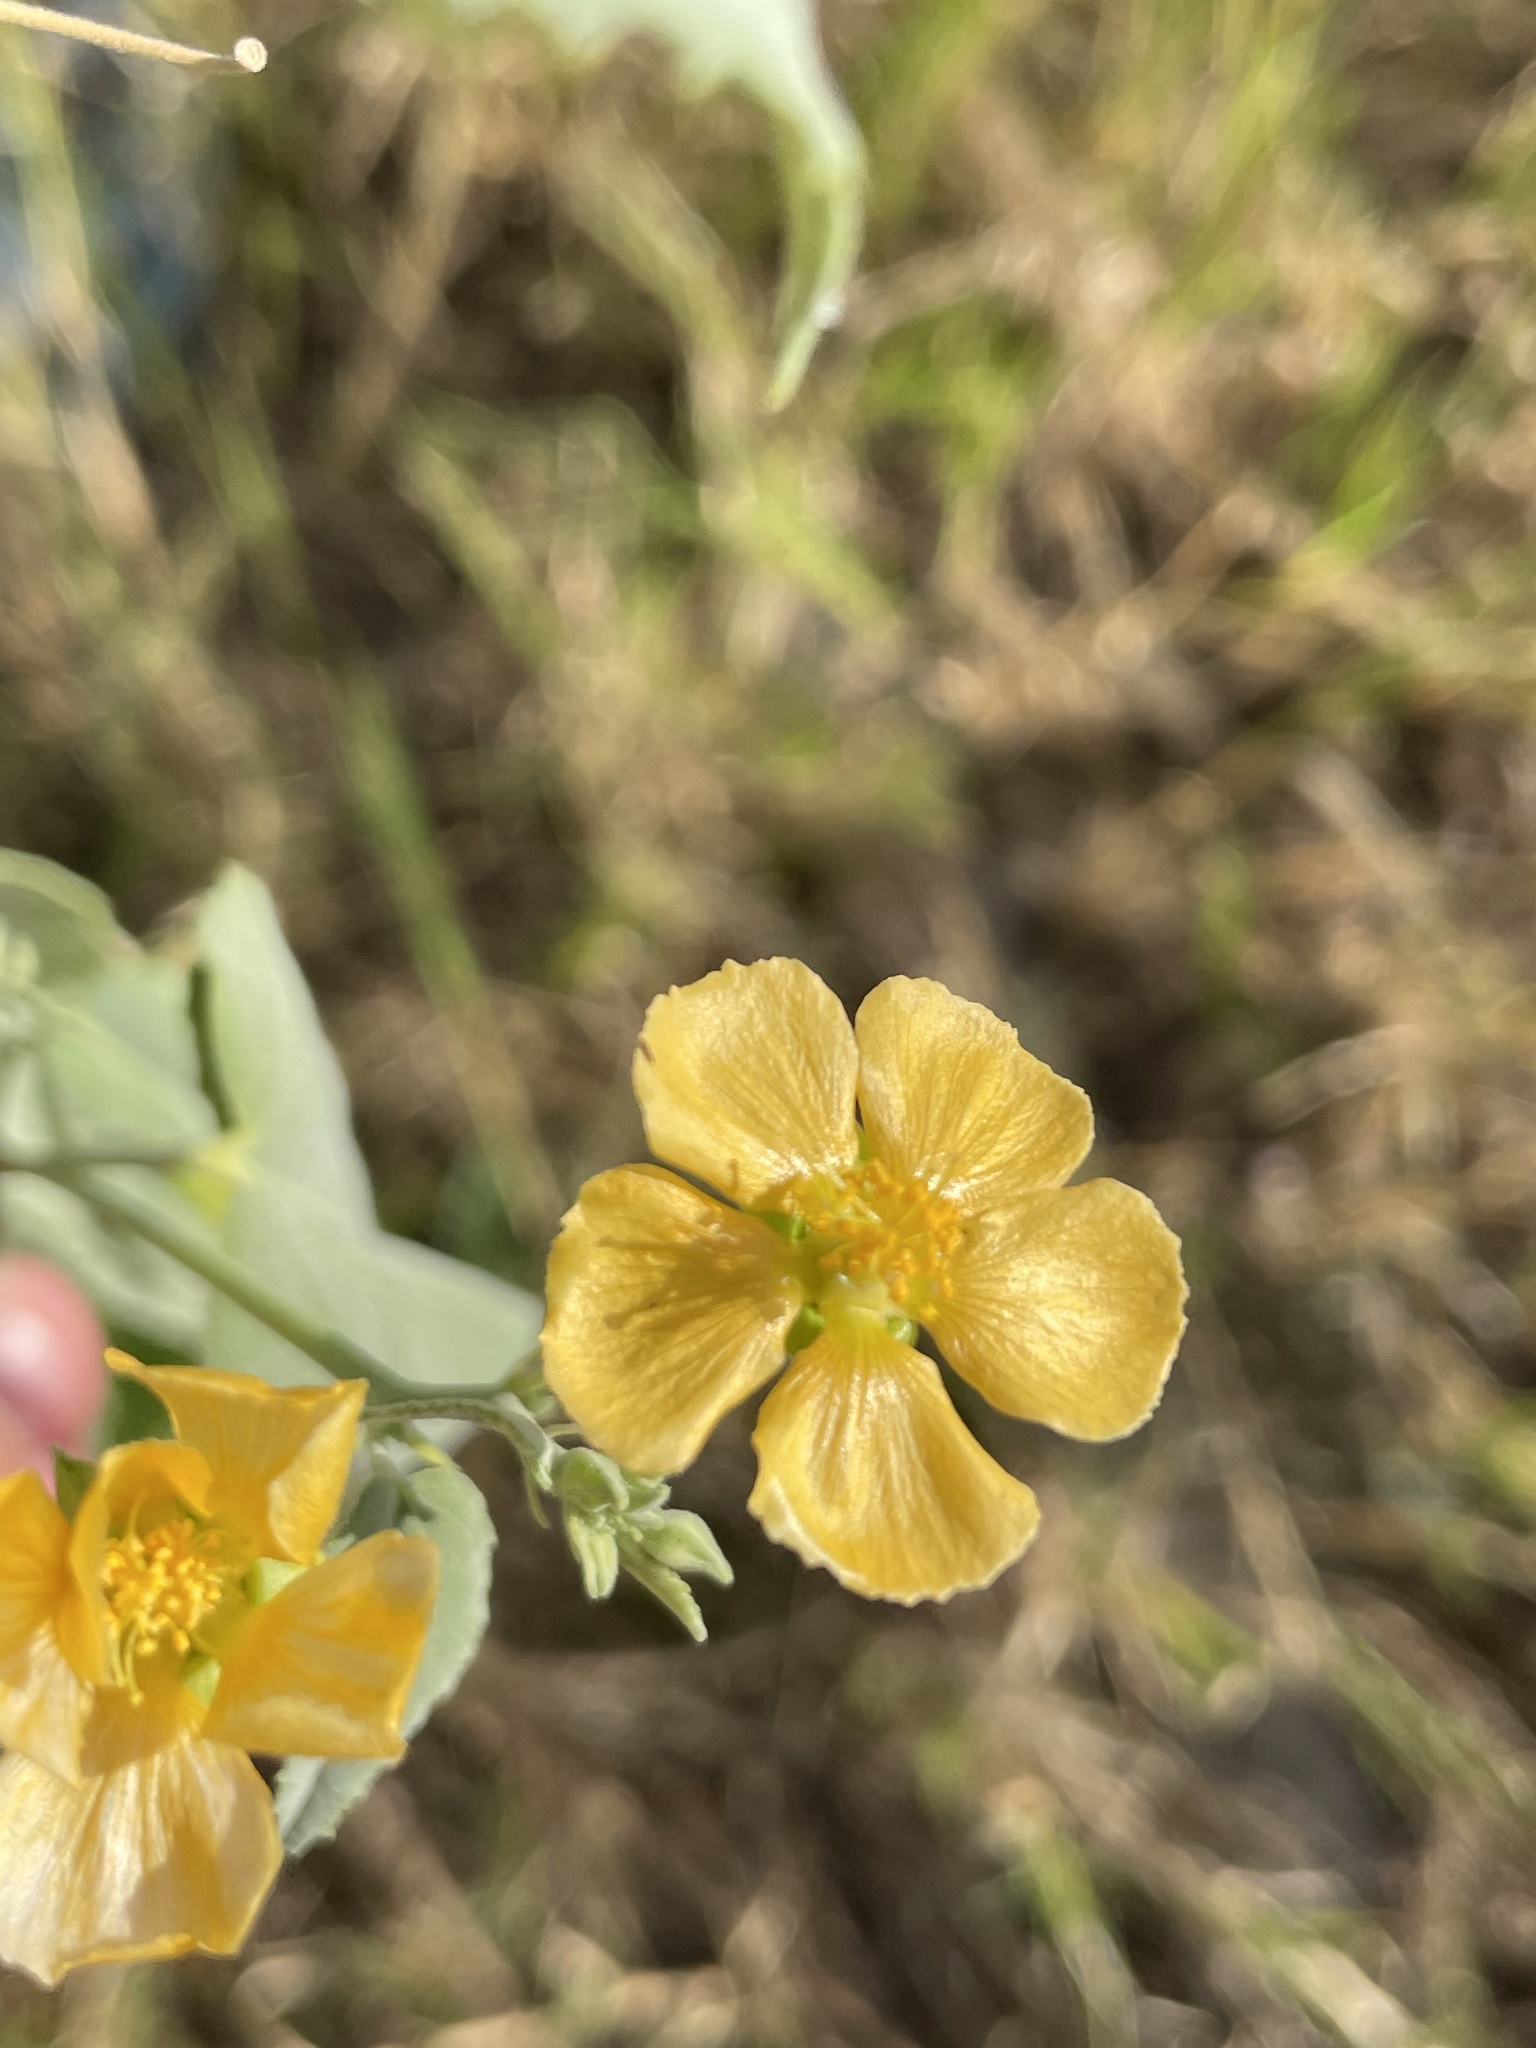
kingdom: Plantae
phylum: Tracheophyta
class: Magnoliopsida
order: Malvales
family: Malvaceae
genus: Abutilon
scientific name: Abutilon fruticosum
